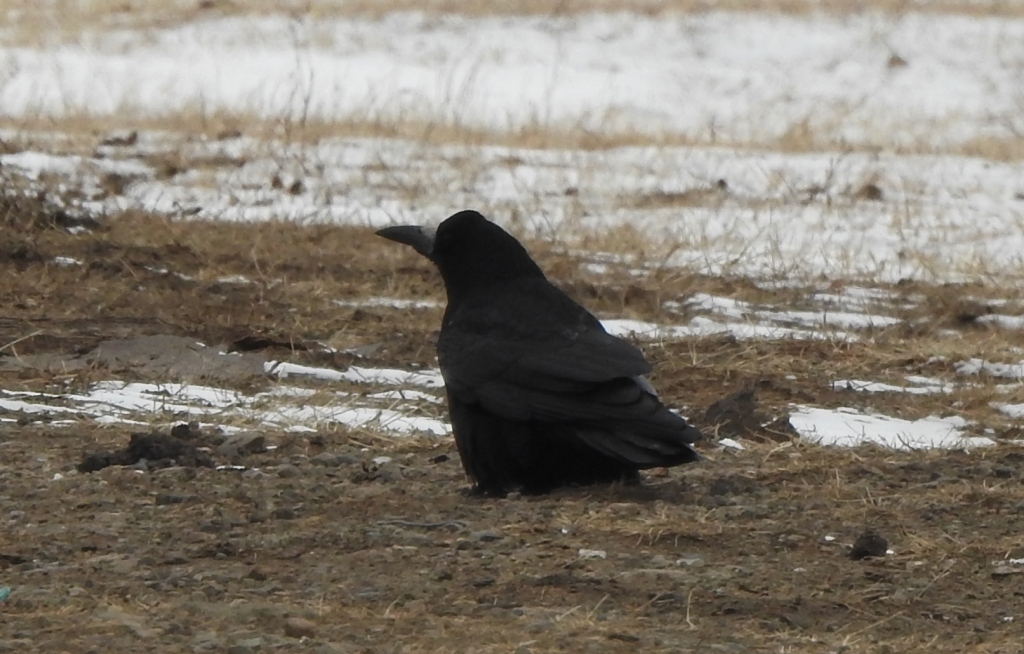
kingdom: Animalia
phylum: Chordata
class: Aves
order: Passeriformes
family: Corvidae
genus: Corvus
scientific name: Corvus frugilegus
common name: Rook
